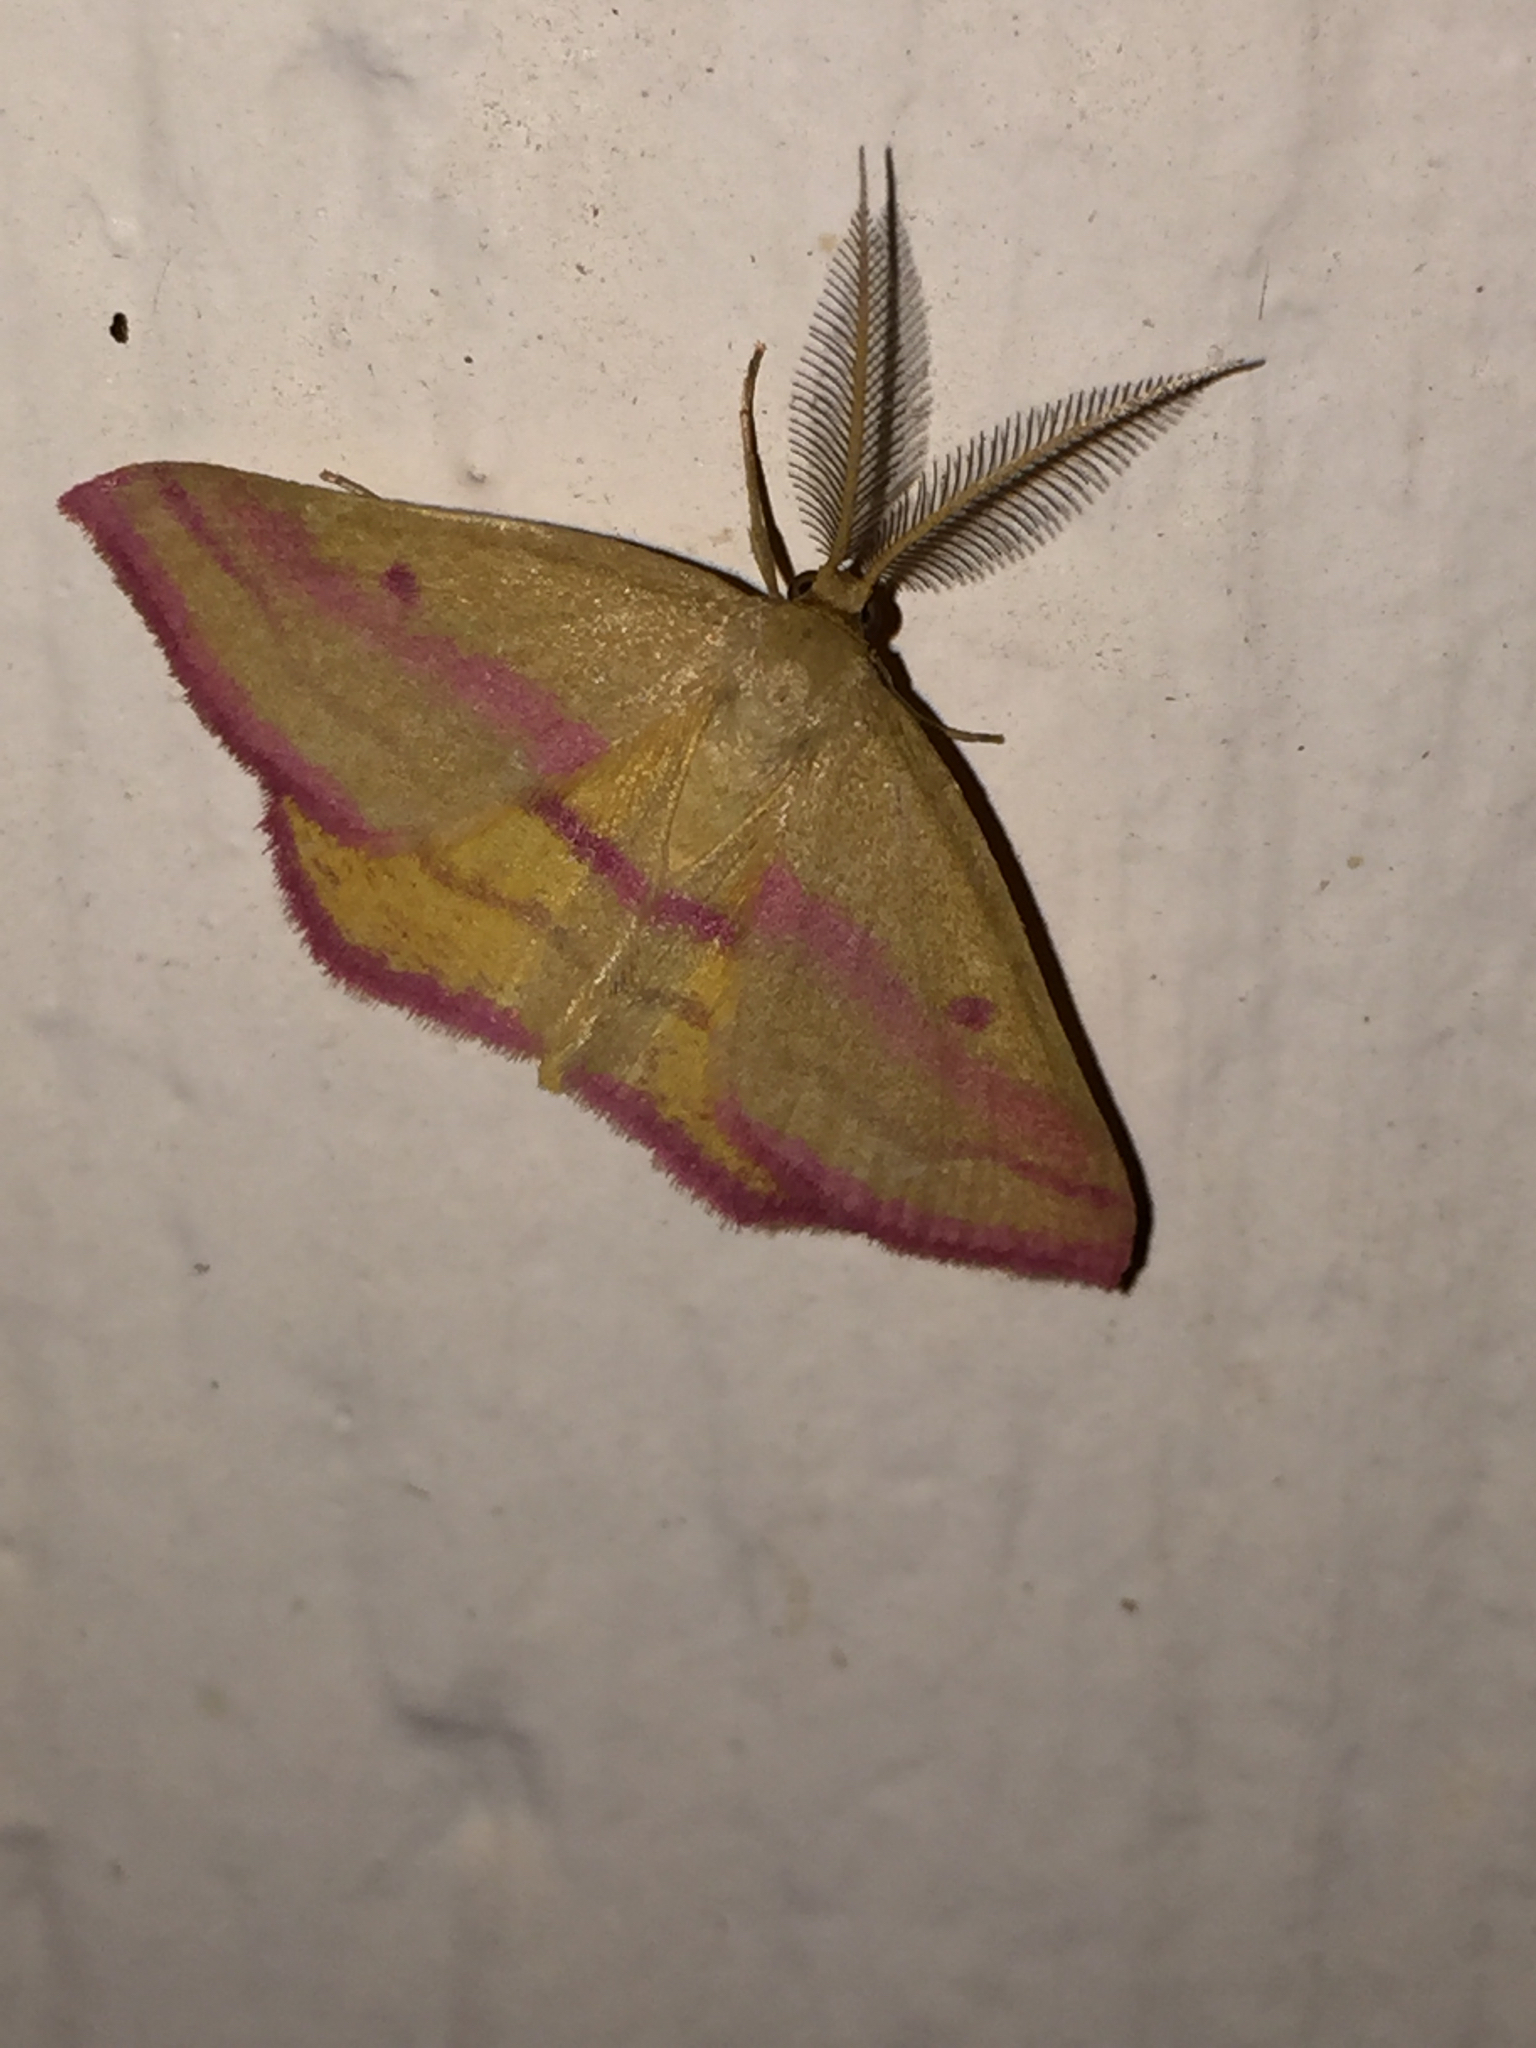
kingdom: Animalia
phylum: Arthropoda
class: Insecta
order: Lepidoptera
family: Geometridae
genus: Haematopis
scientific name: Haematopis grataria
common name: Chickweed geometer
